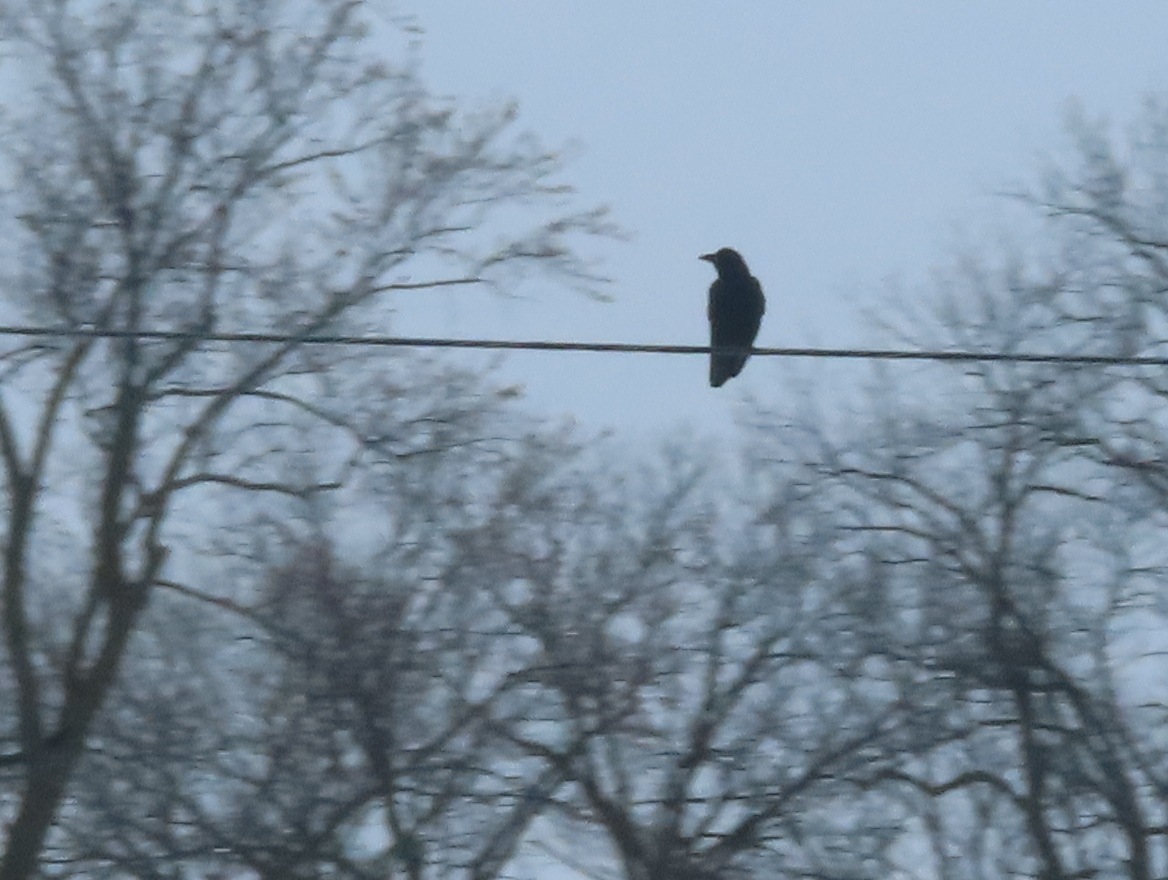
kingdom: Animalia
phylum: Chordata
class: Aves
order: Passeriformes
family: Corvidae
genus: Corvus
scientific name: Corvus brachyrhynchos
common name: American crow
